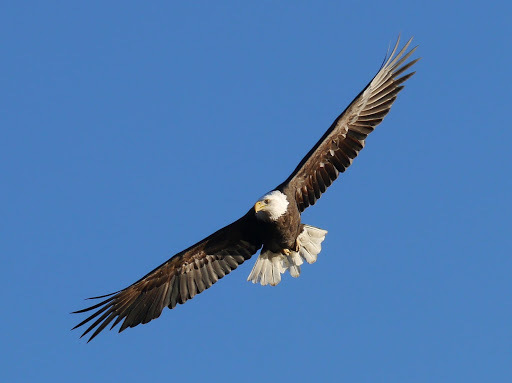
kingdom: Animalia
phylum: Chordata
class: Aves
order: Accipitriformes
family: Accipitridae
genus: Haliaeetus
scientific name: Haliaeetus leucocephalus
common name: Bald eagle
